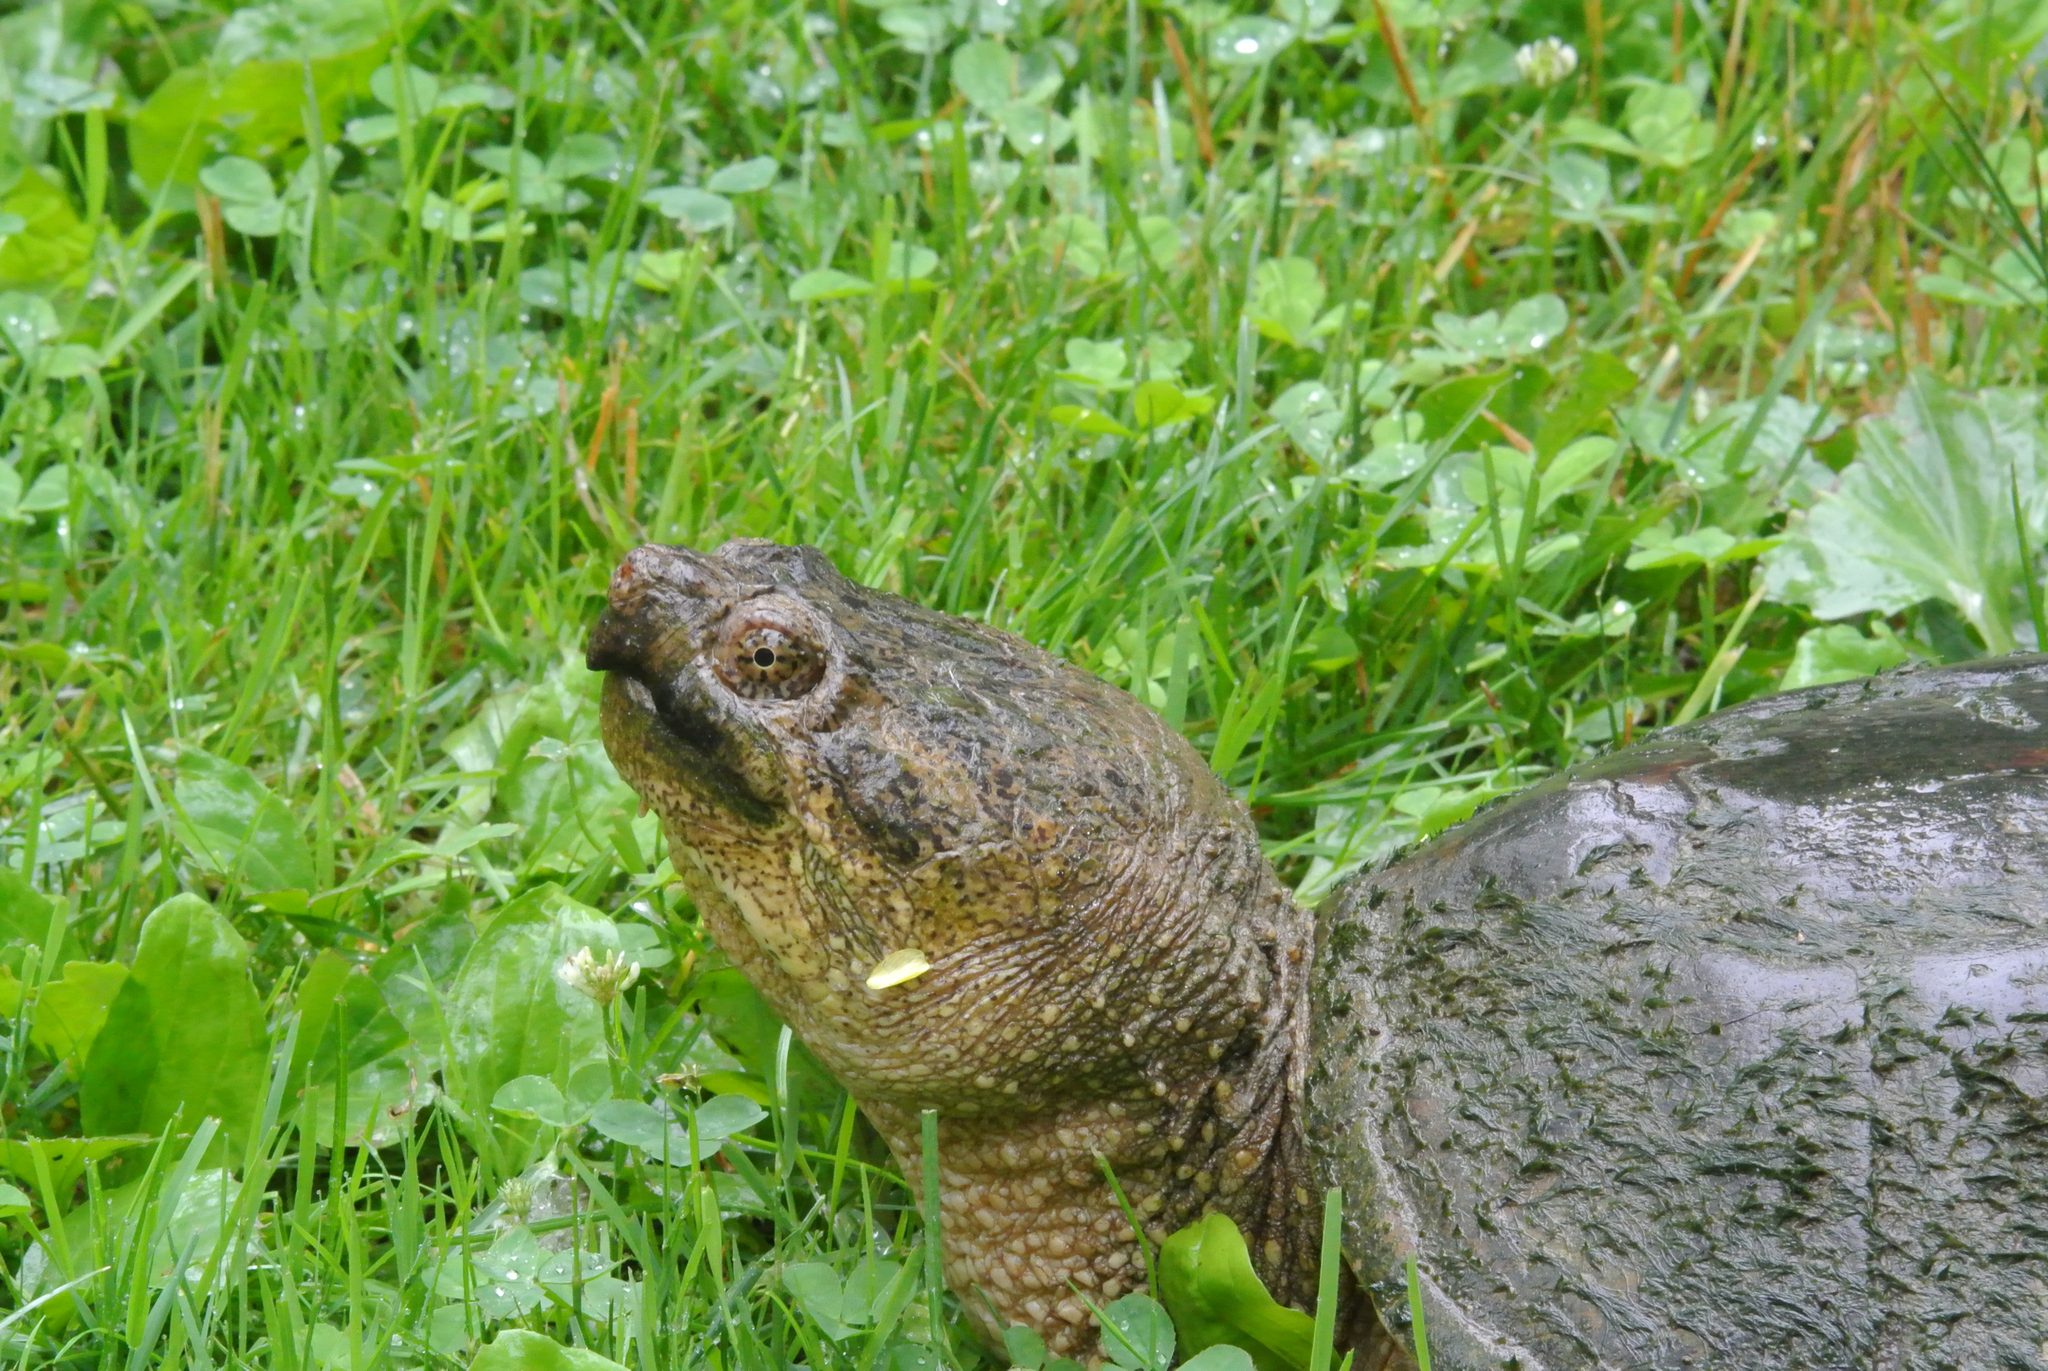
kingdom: Animalia
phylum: Chordata
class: Testudines
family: Chelydridae
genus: Chelydra
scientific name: Chelydra serpentina
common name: Common snapping turtle
